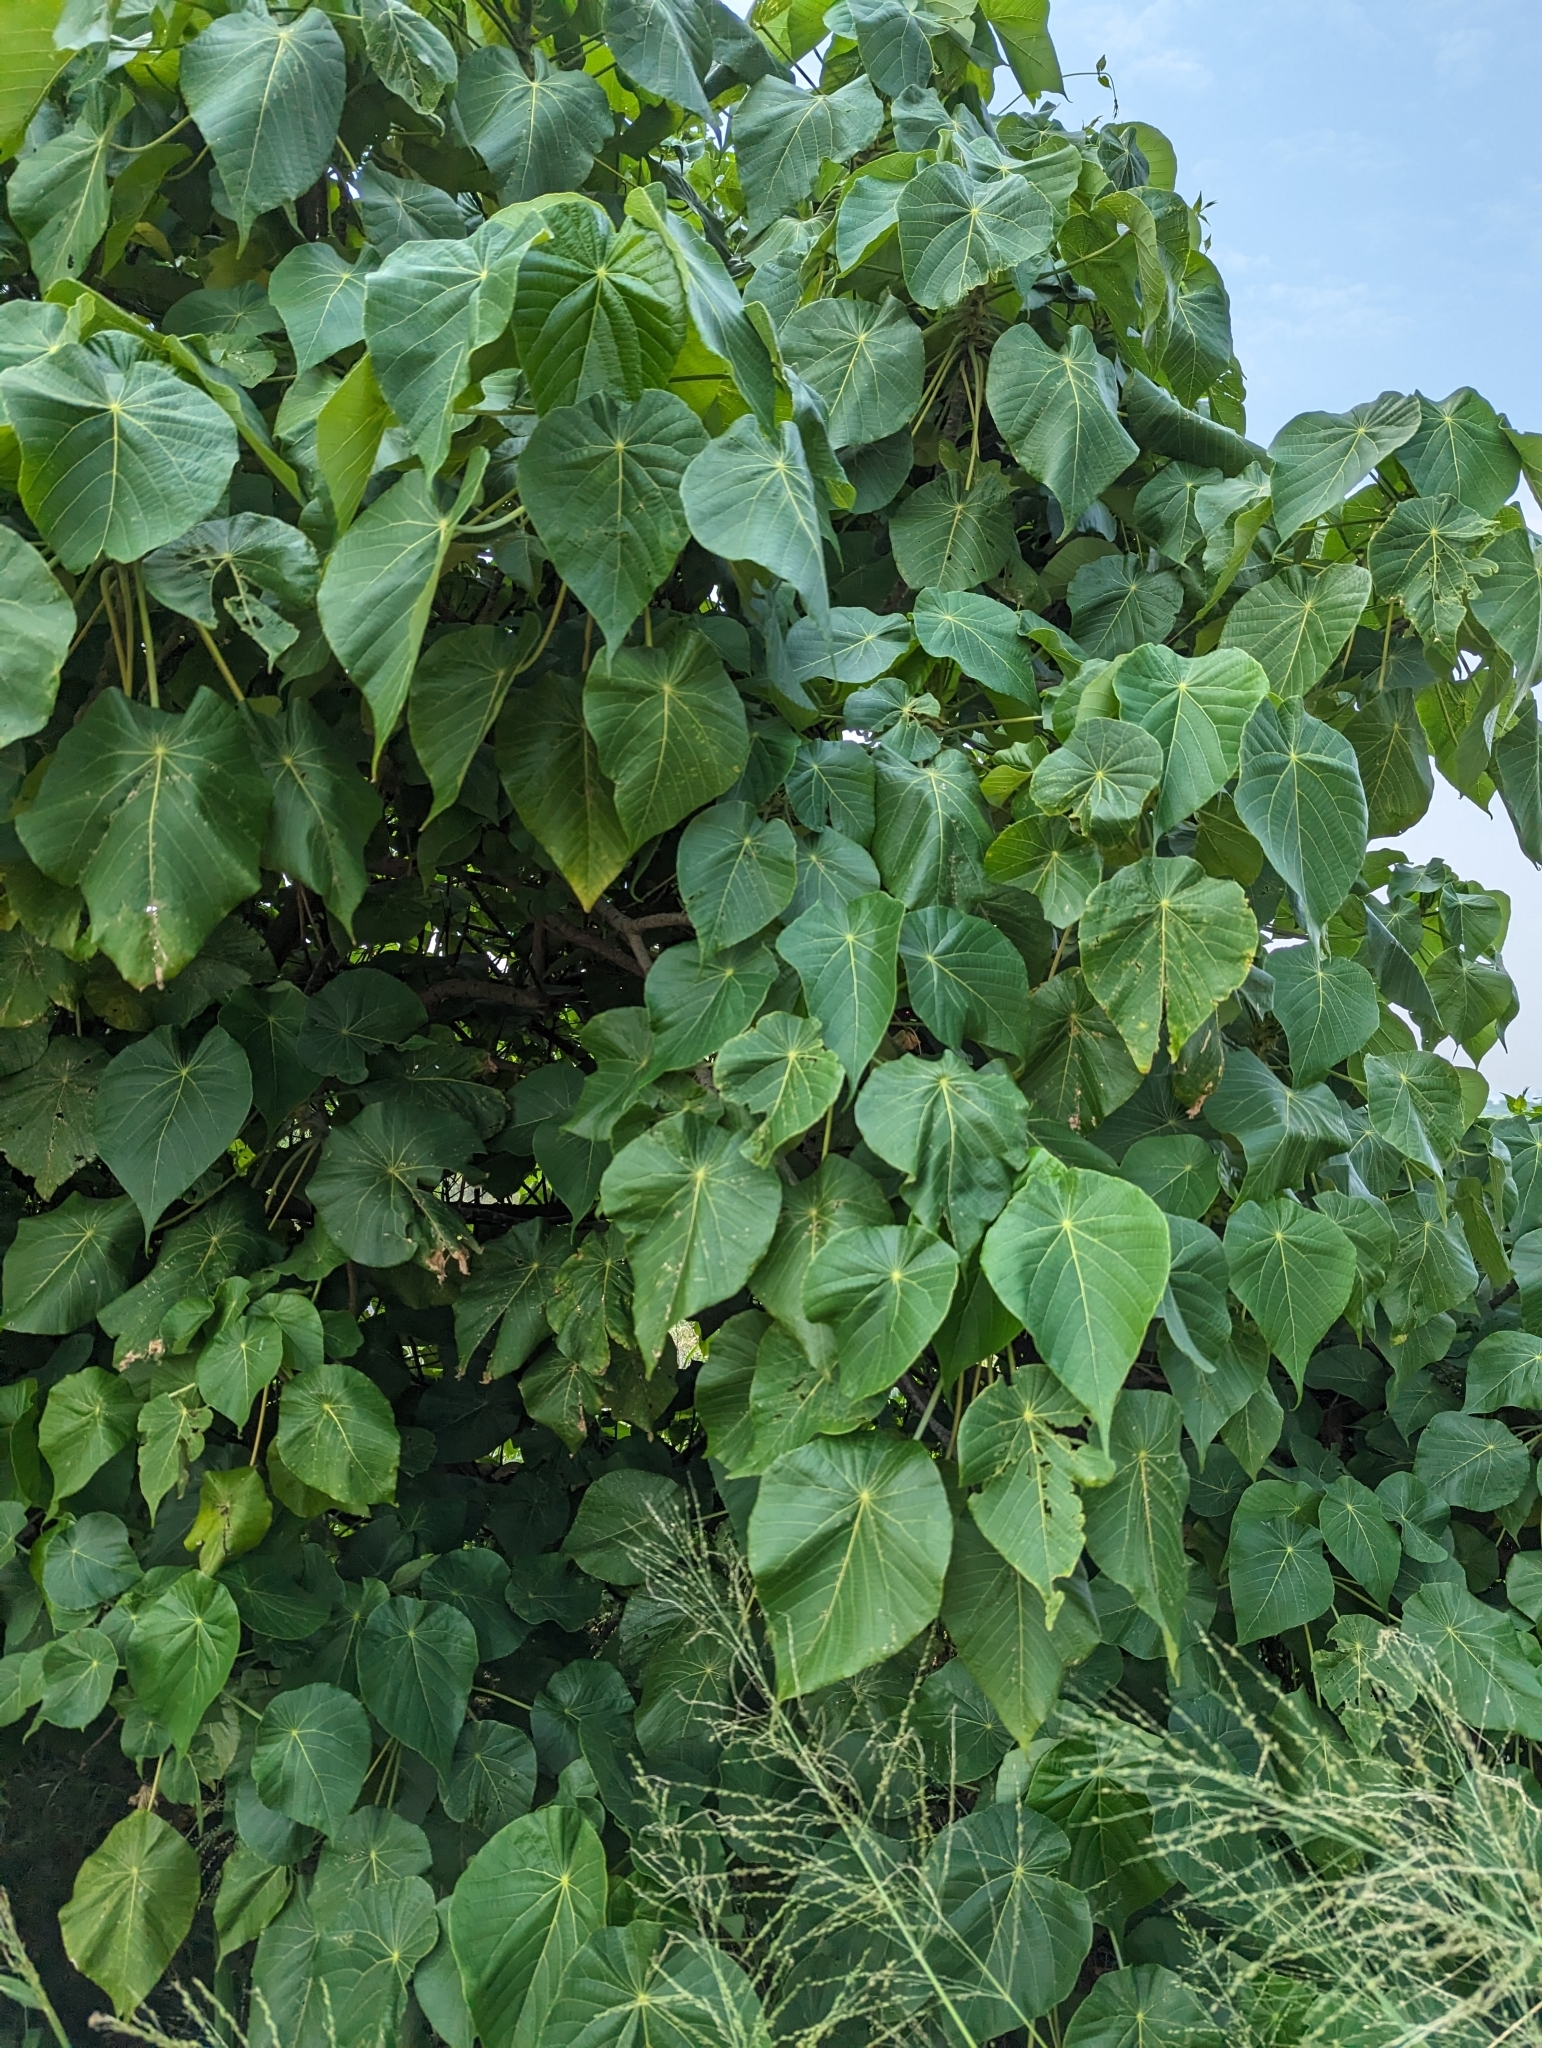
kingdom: Plantae
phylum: Tracheophyta
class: Magnoliopsida
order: Malpighiales
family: Euphorbiaceae
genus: Macaranga
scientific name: Macaranga tanarius
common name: Parasol leaf tree
